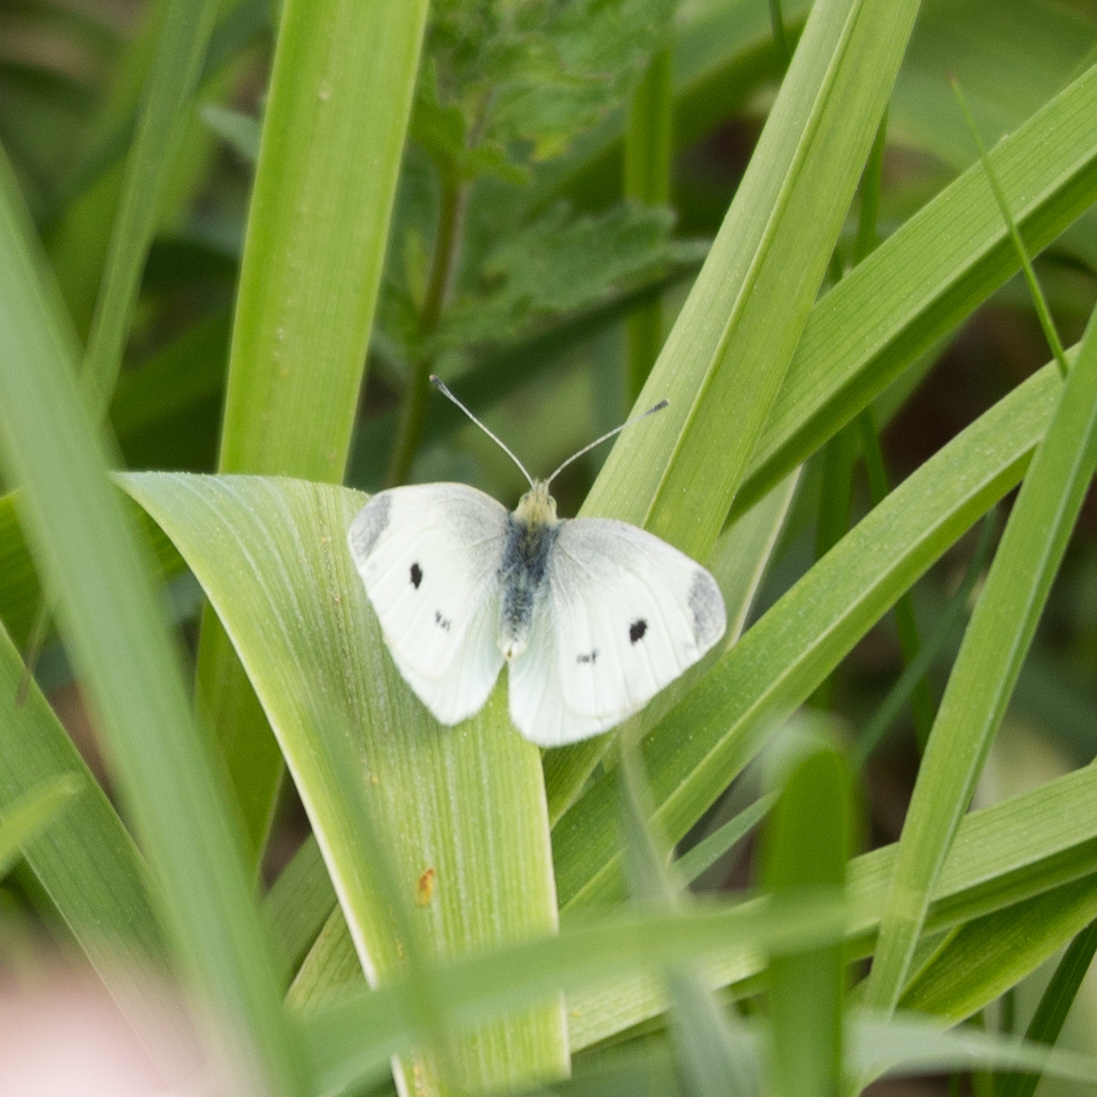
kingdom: Animalia
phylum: Arthropoda
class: Insecta
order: Lepidoptera
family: Pieridae
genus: Pieris
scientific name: Pieris rapae
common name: Small white
